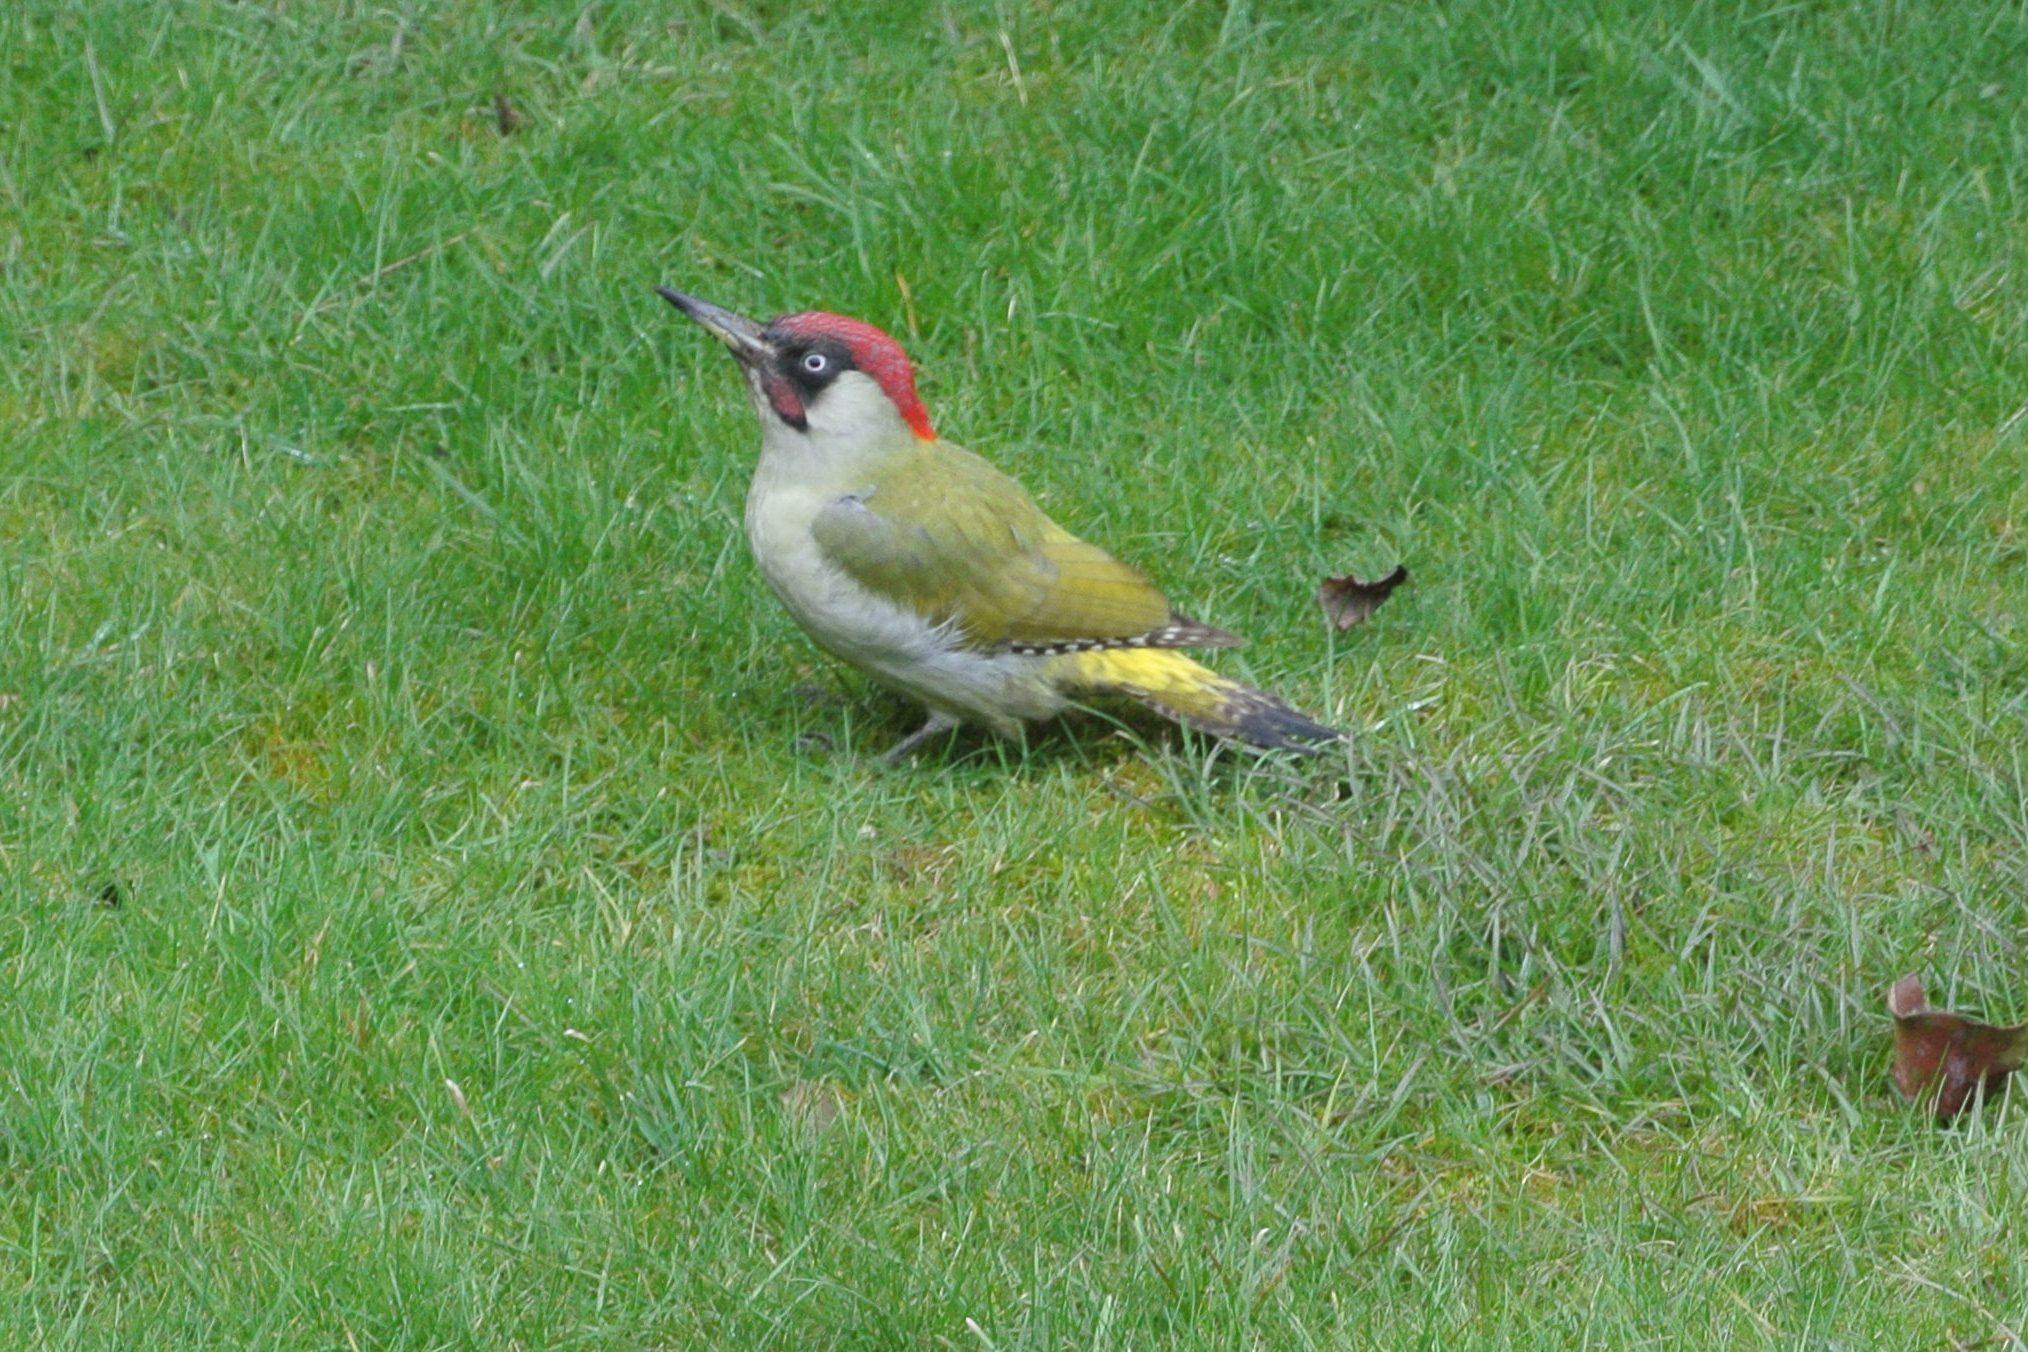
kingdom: Animalia
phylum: Chordata
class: Aves
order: Piciformes
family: Picidae
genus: Picus
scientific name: Picus viridis
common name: European green woodpecker
